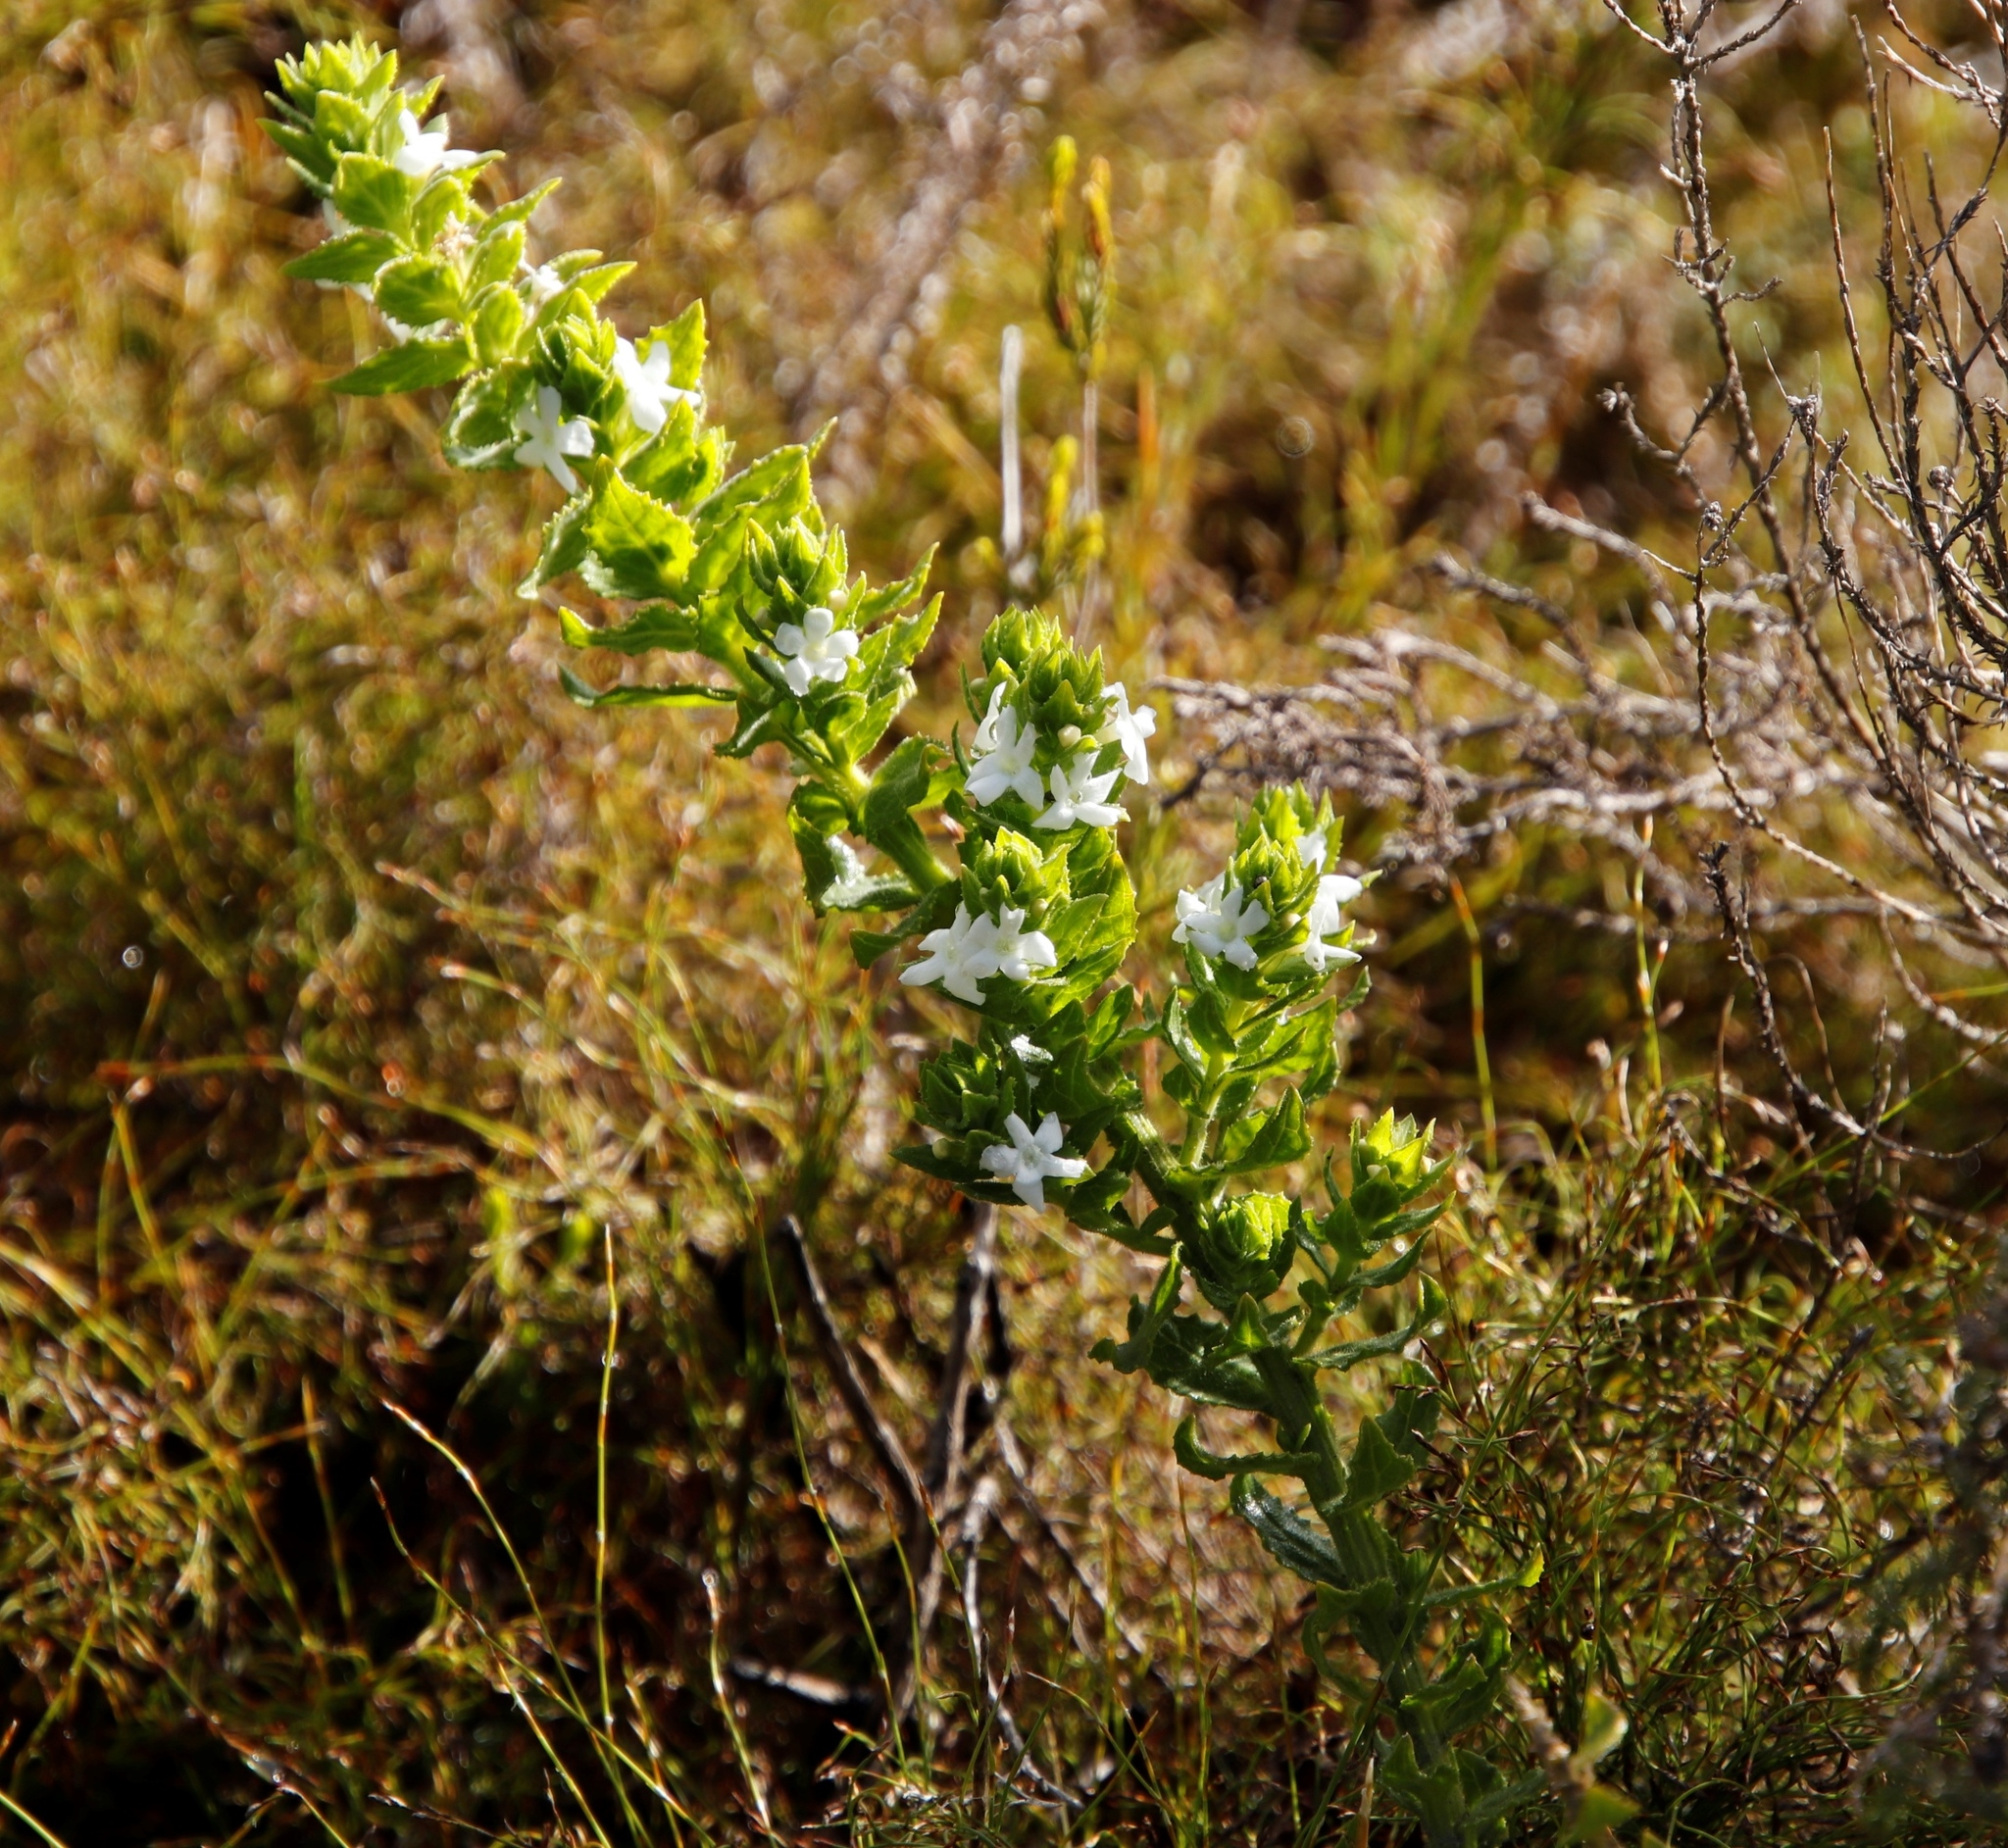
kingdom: Plantae
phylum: Tracheophyta
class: Magnoliopsida
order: Lamiales
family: Scrophulariaceae
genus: Oftia
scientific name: Oftia africana
